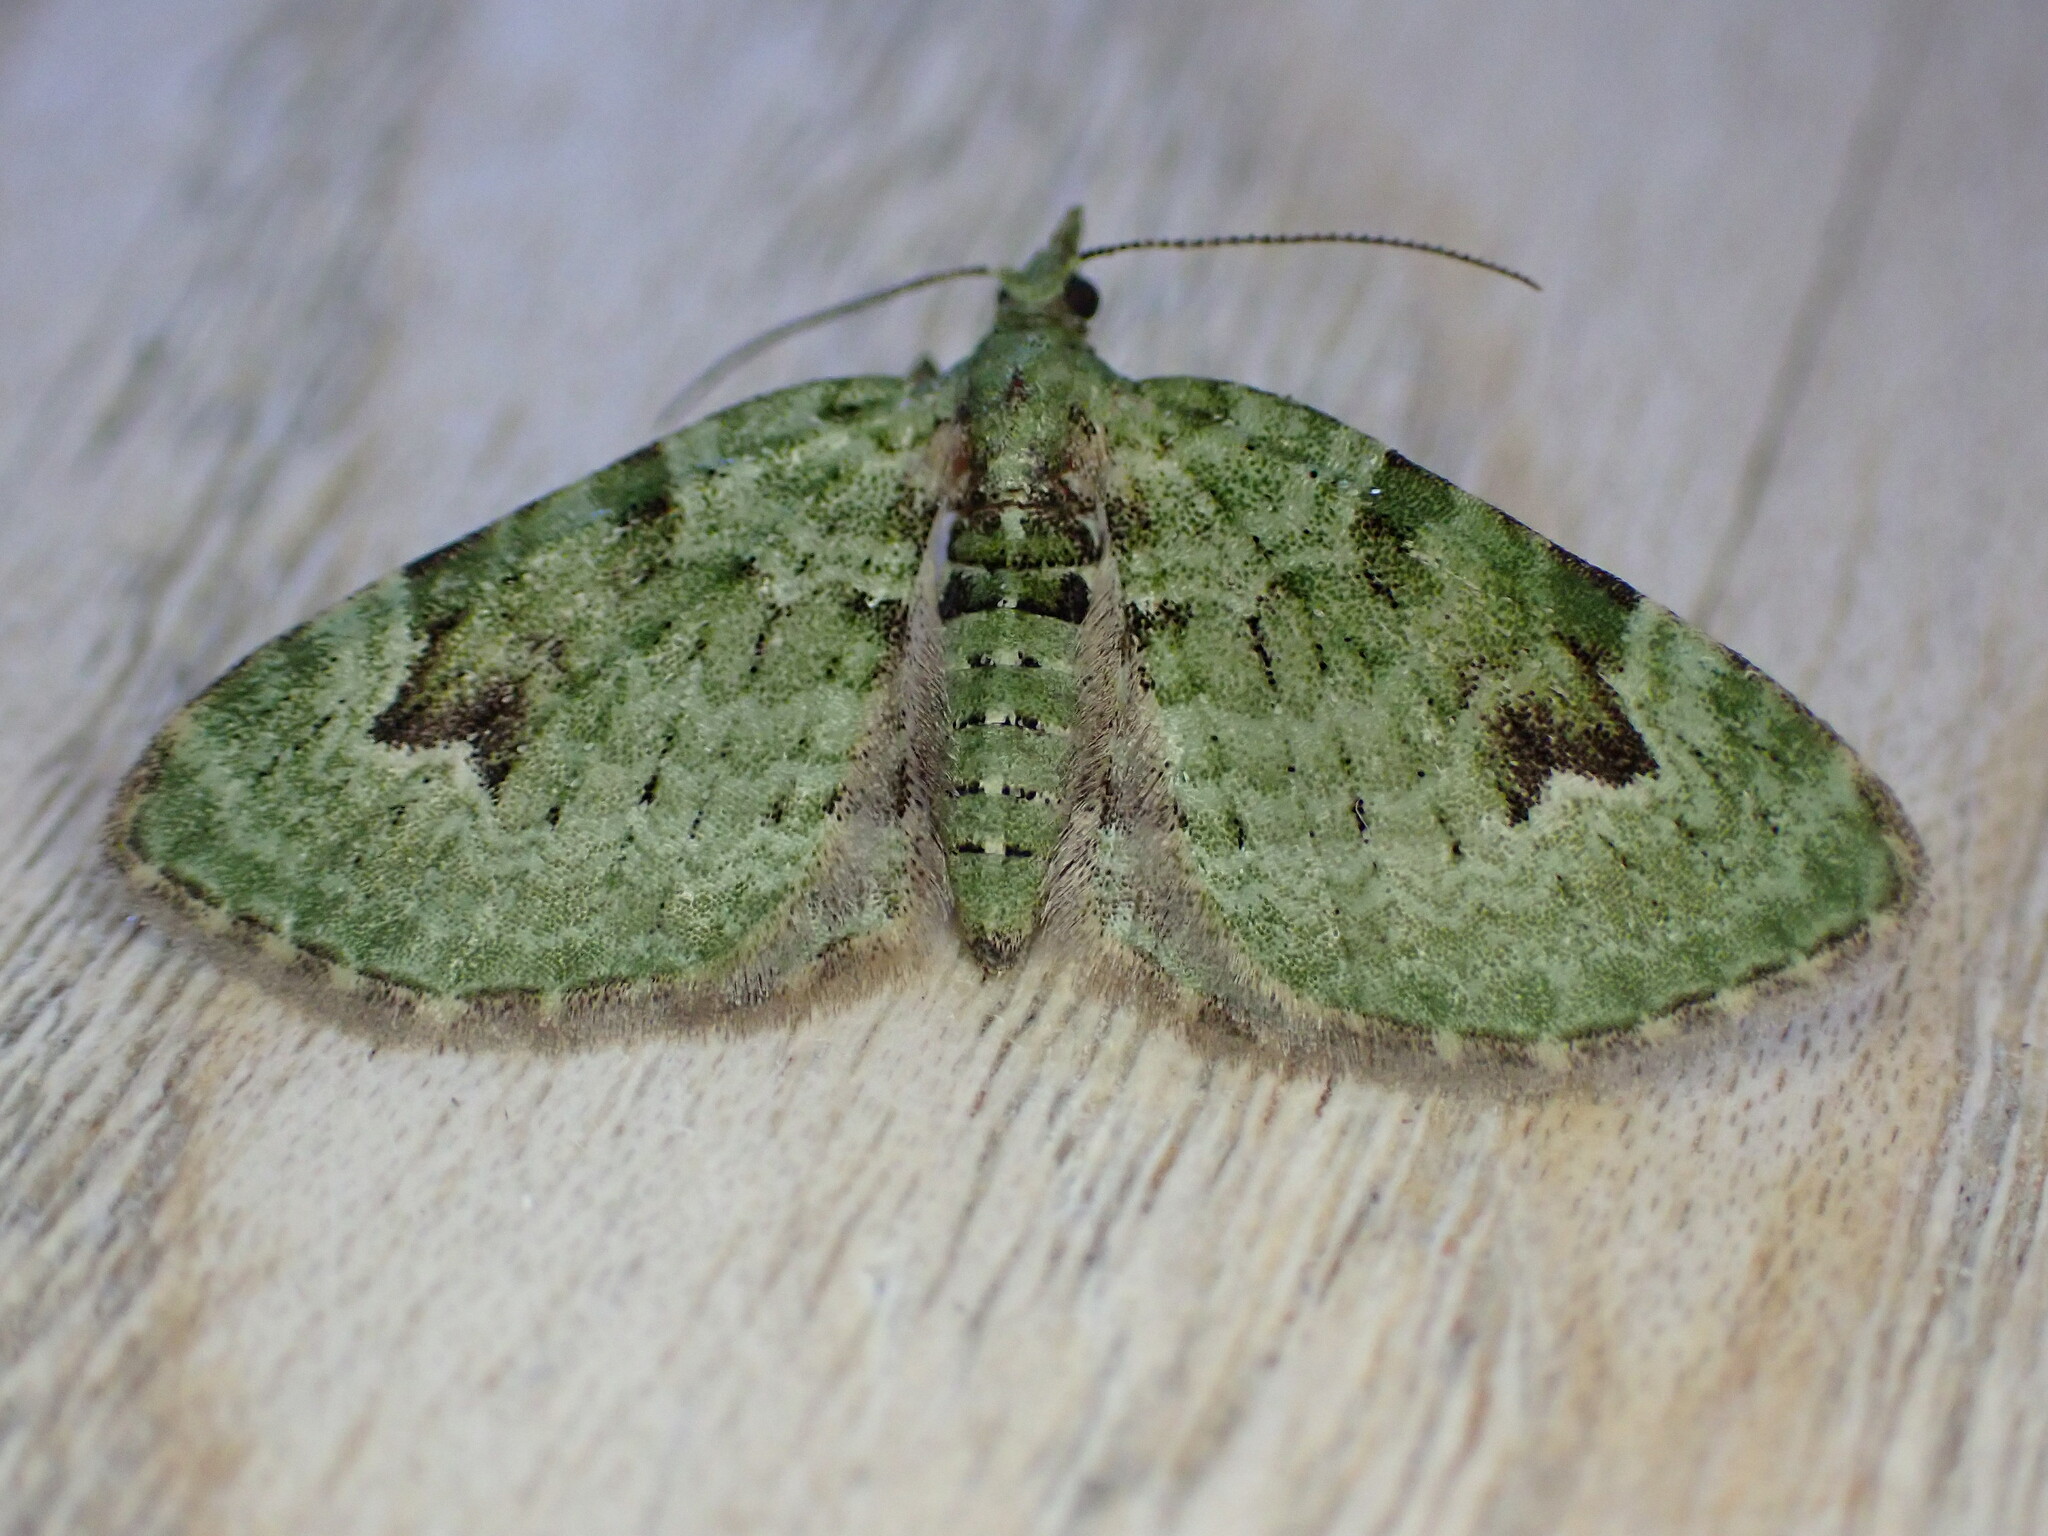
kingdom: Animalia
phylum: Arthropoda
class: Insecta
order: Lepidoptera
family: Geometridae
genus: Chloroclystis
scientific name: Chloroclystis v-ata
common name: V-pug
